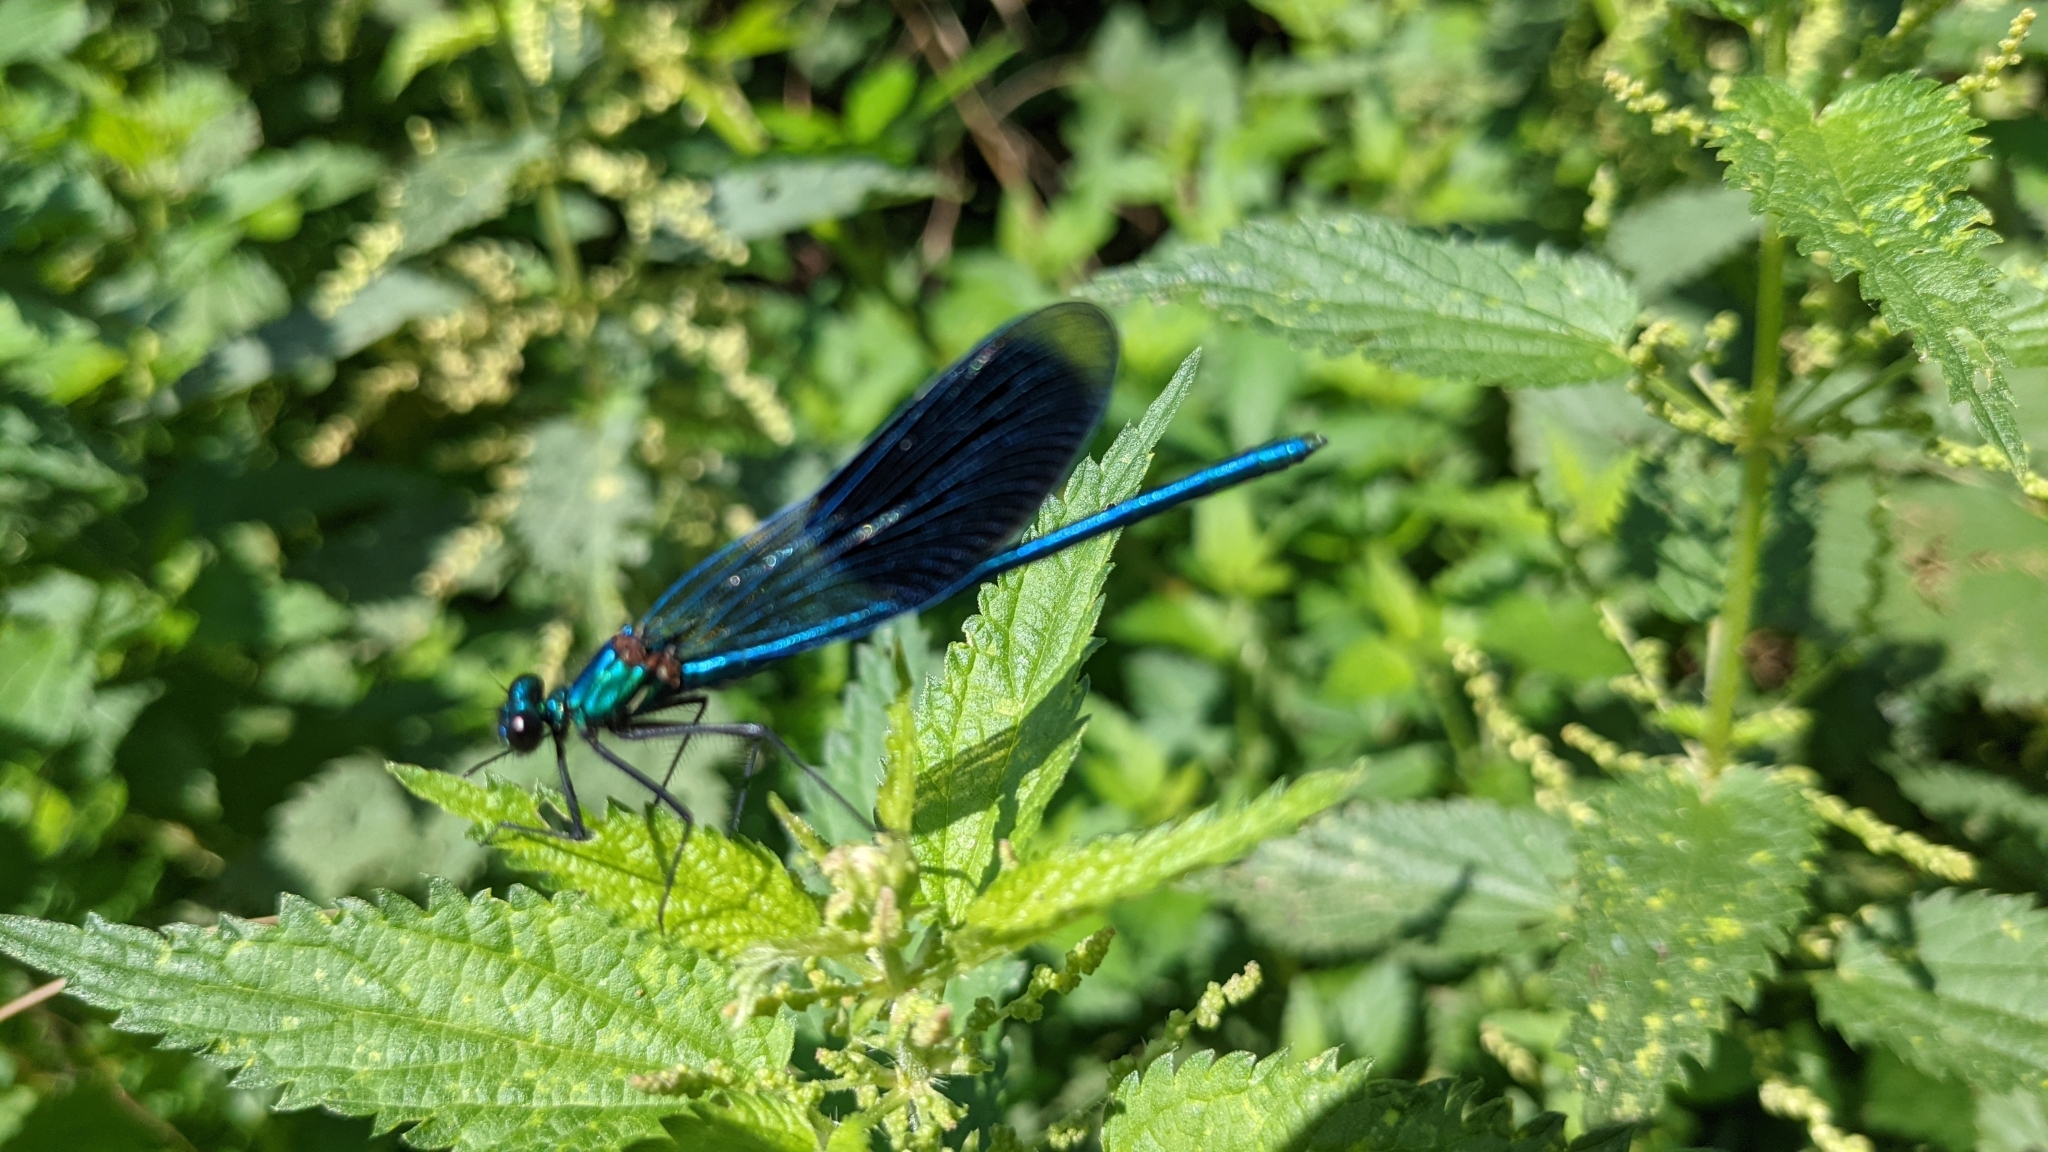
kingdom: Animalia
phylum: Arthropoda
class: Insecta
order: Odonata
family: Calopterygidae
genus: Calopteryx
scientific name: Calopteryx splendens
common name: Banded demoiselle
